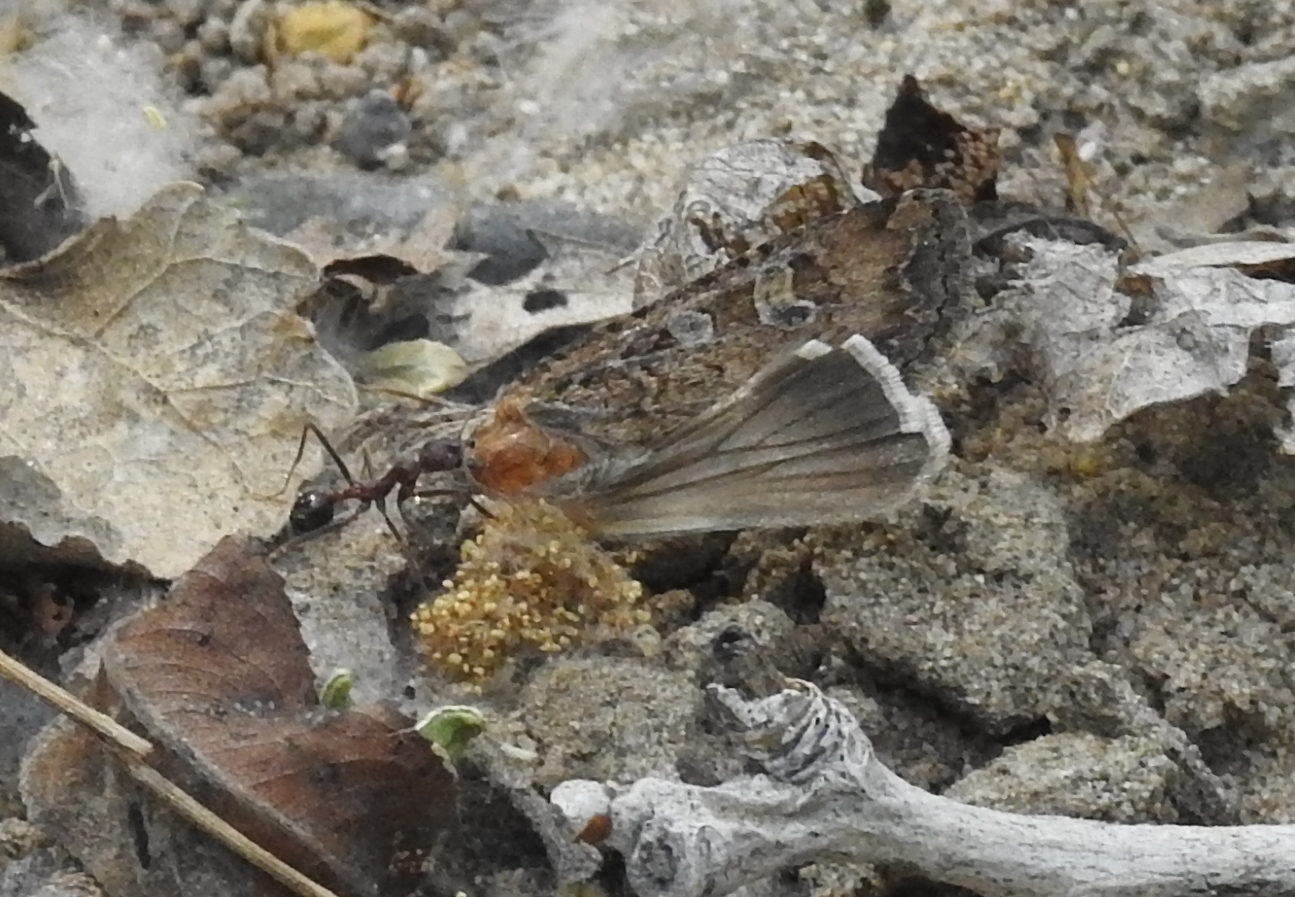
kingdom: Animalia
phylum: Arthropoda
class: Insecta
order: Hymenoptera
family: Formicidae
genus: Novomessor
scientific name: Novomessor albisetosa
